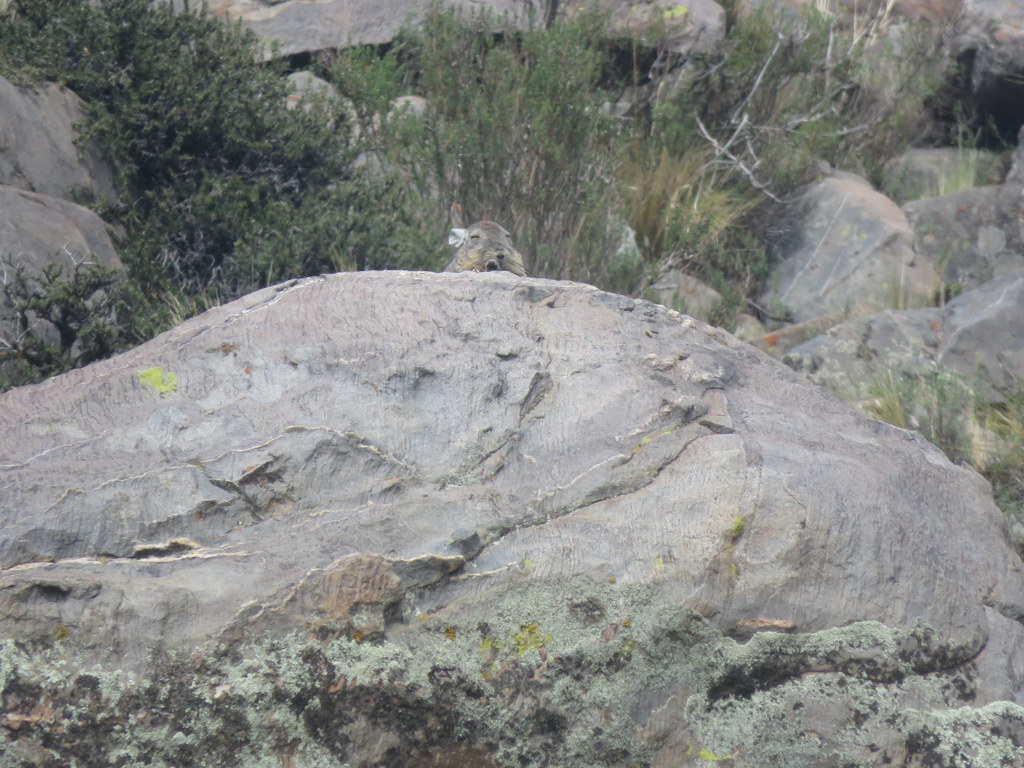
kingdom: Animalia
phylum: Chordata
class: Mammalia
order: Rodentia
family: Chinchillidae
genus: Lagidium
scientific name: Lagidium viscacia
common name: Southern viscacha
